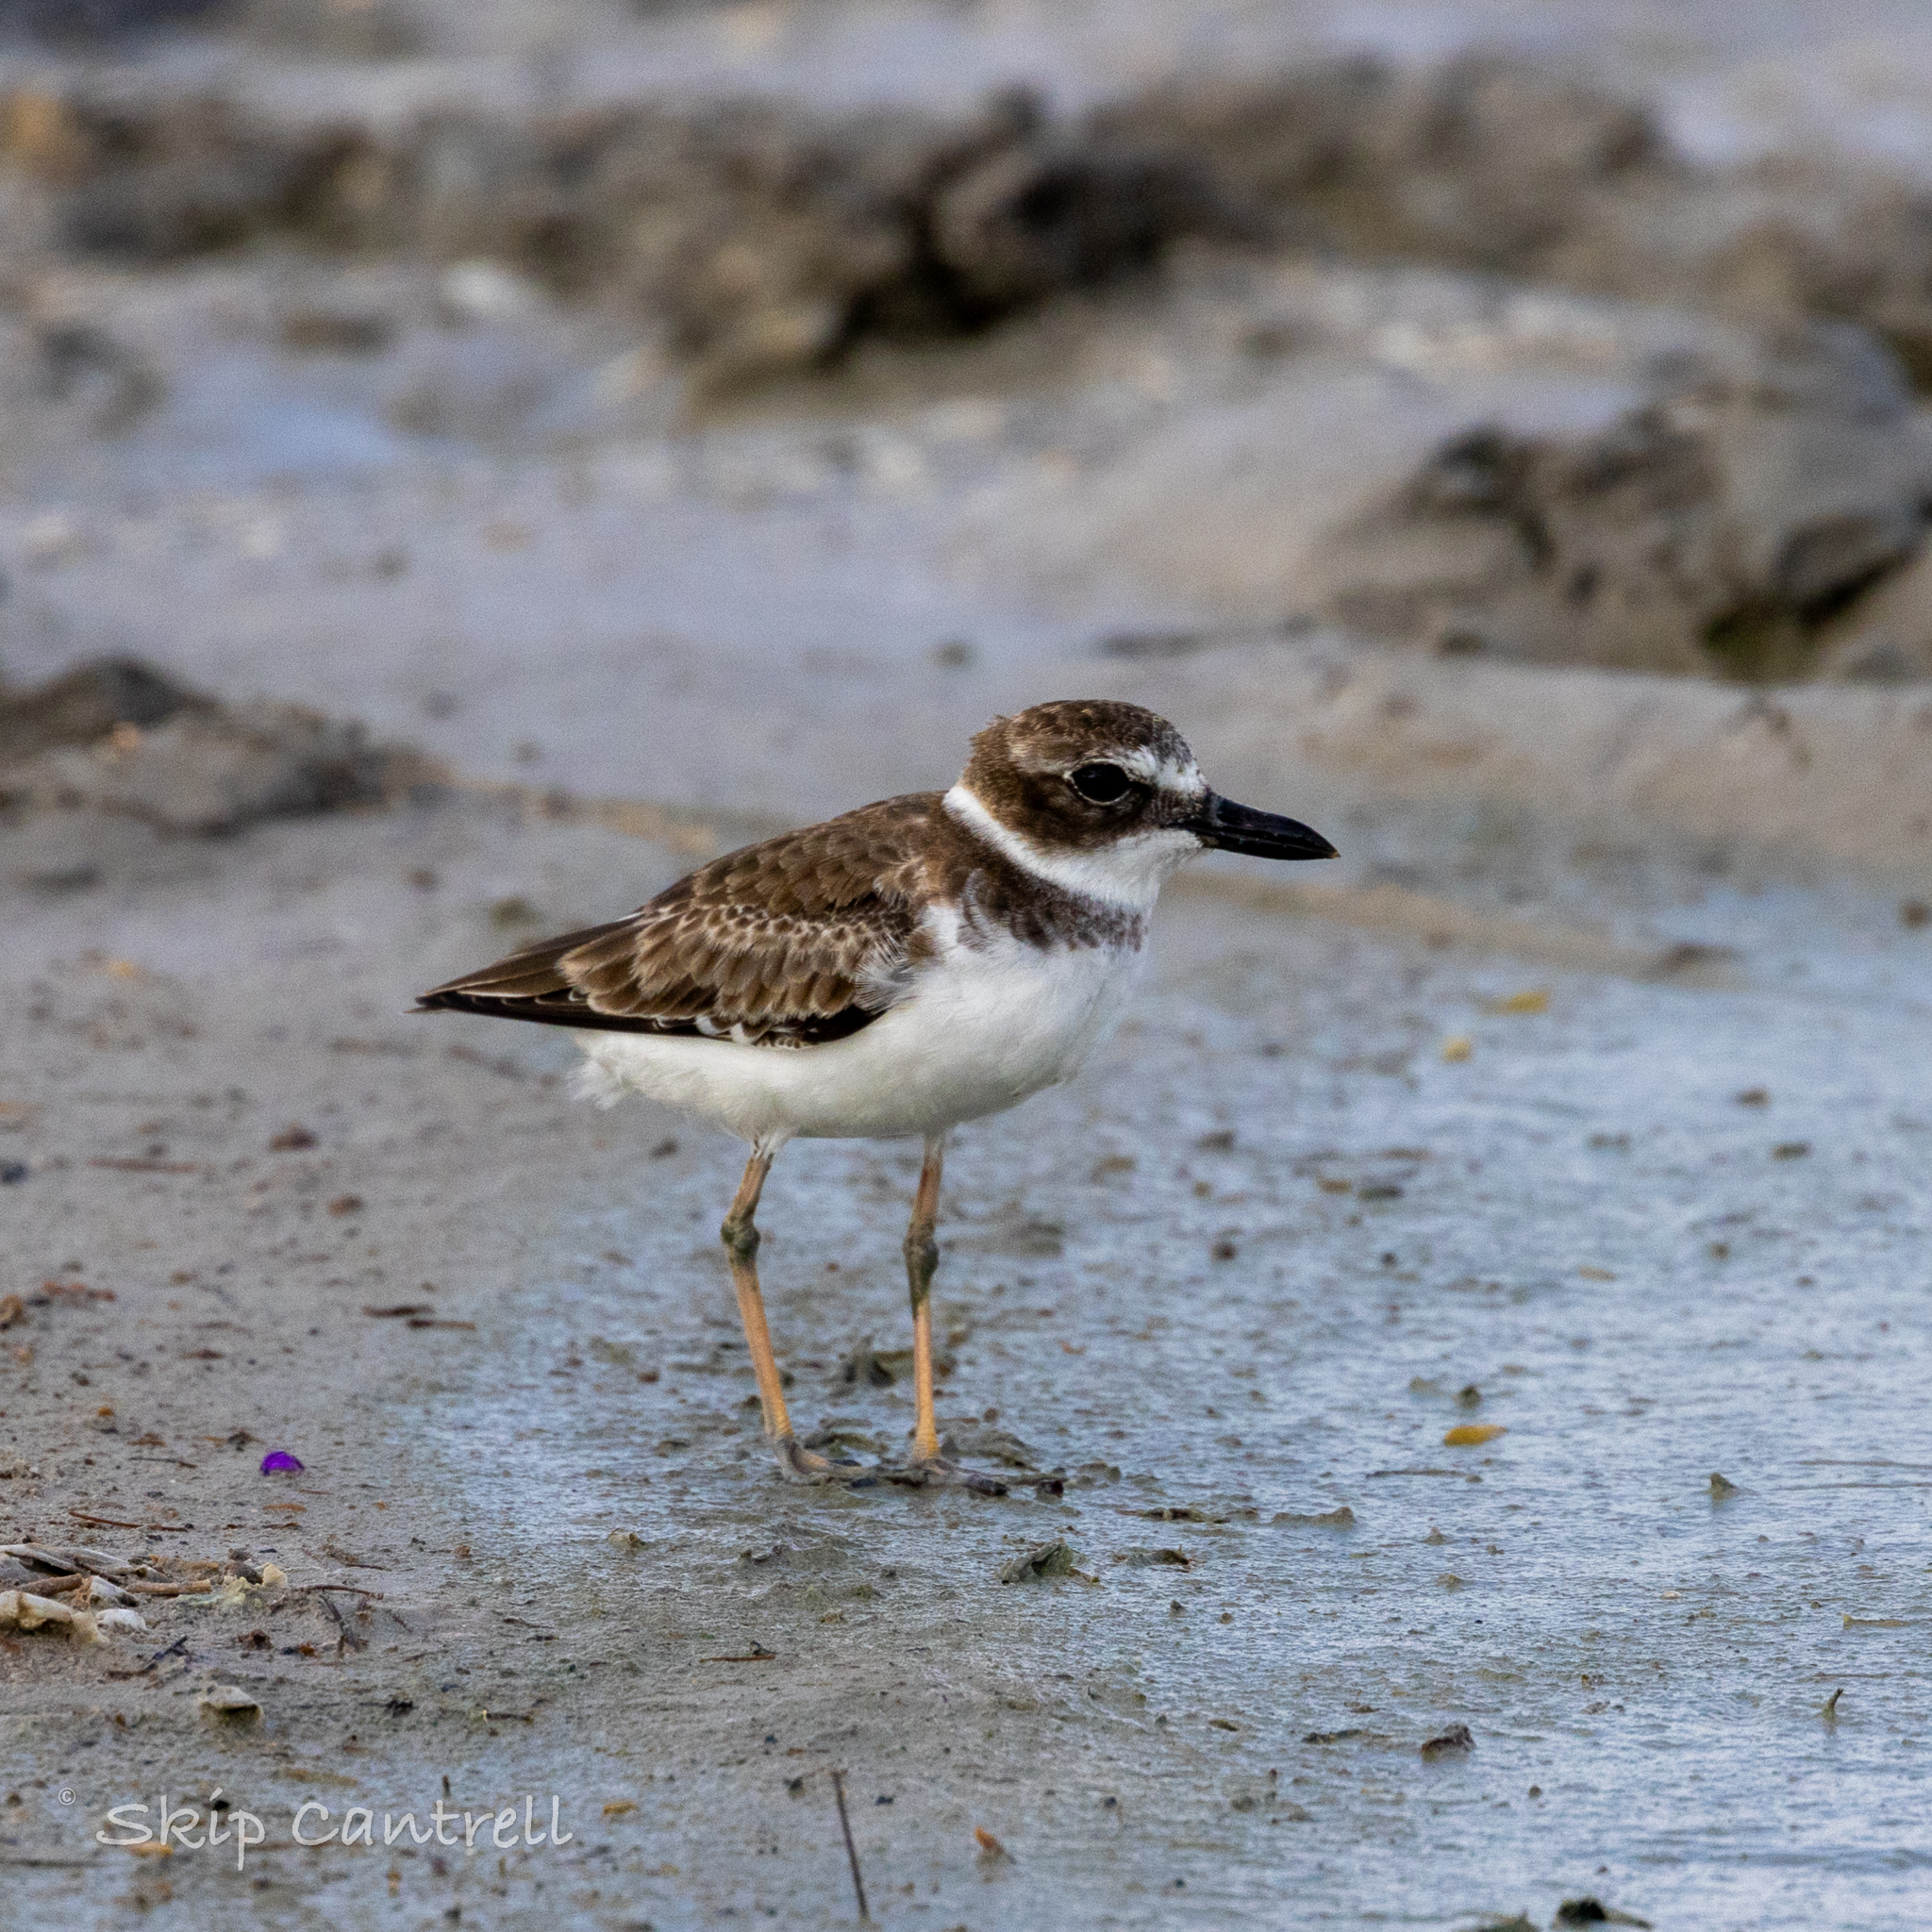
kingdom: Animalia
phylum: Chordata
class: Aves
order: Charadriiformes
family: Charadriidae
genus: Anarhynchus
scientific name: Anarhynchus
